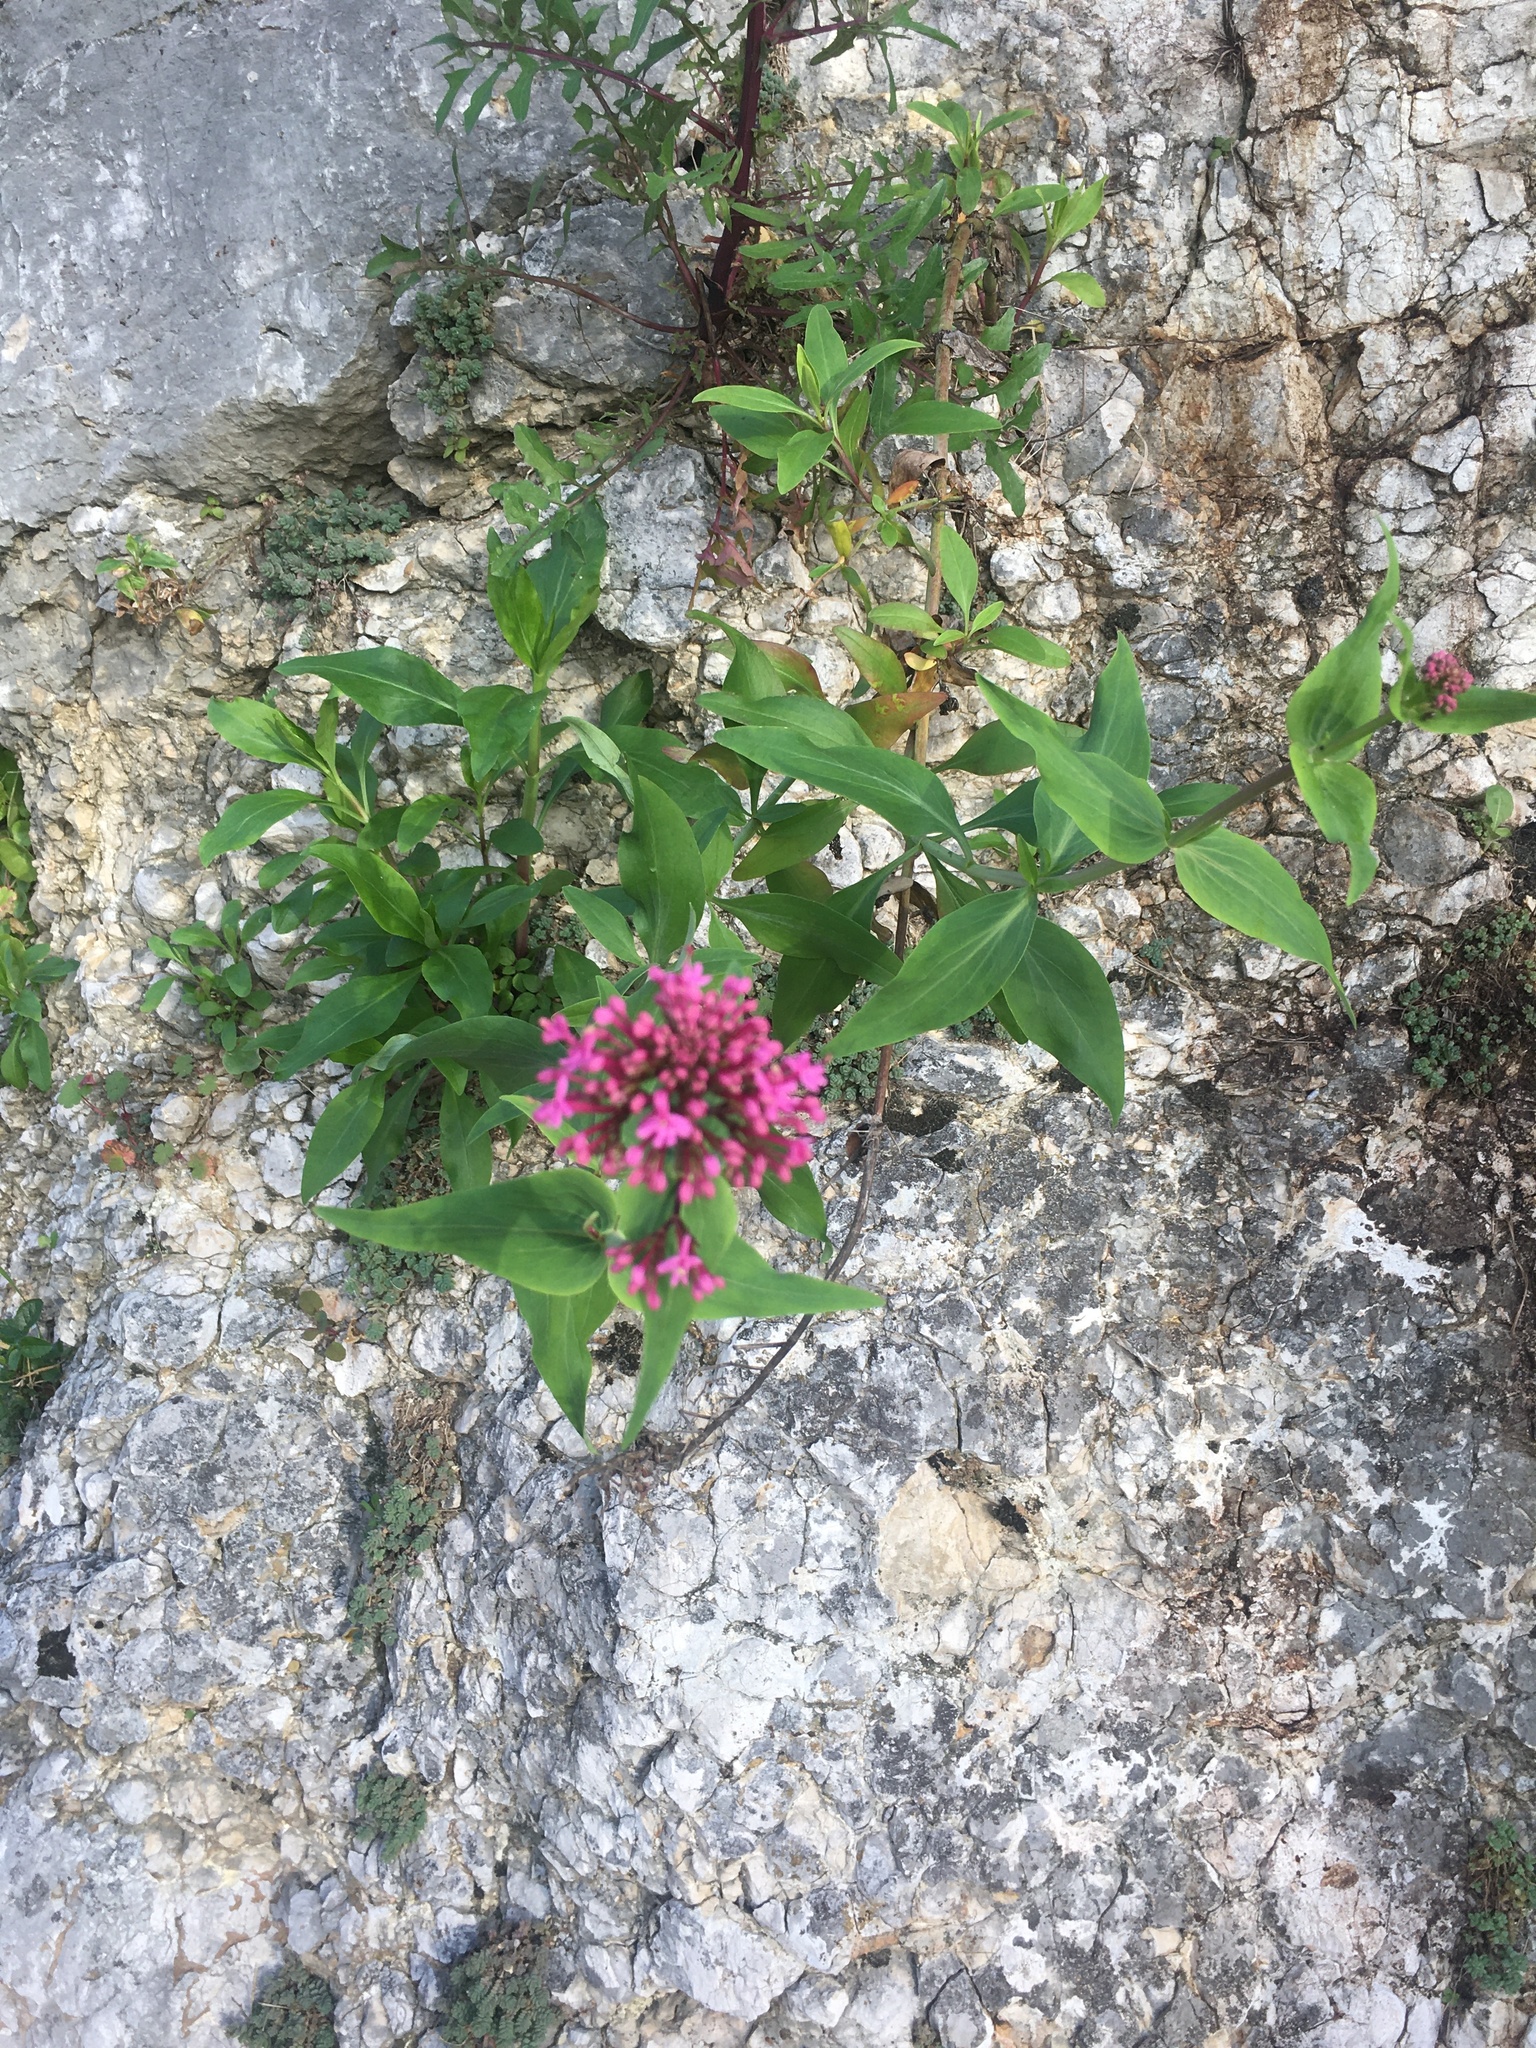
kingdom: Plantae
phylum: Tracheophyta
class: Magnoliopsida
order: Dipsacales
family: Caprifoliaceae
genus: Centranthus
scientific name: Centranthus ruber
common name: Red valerian
